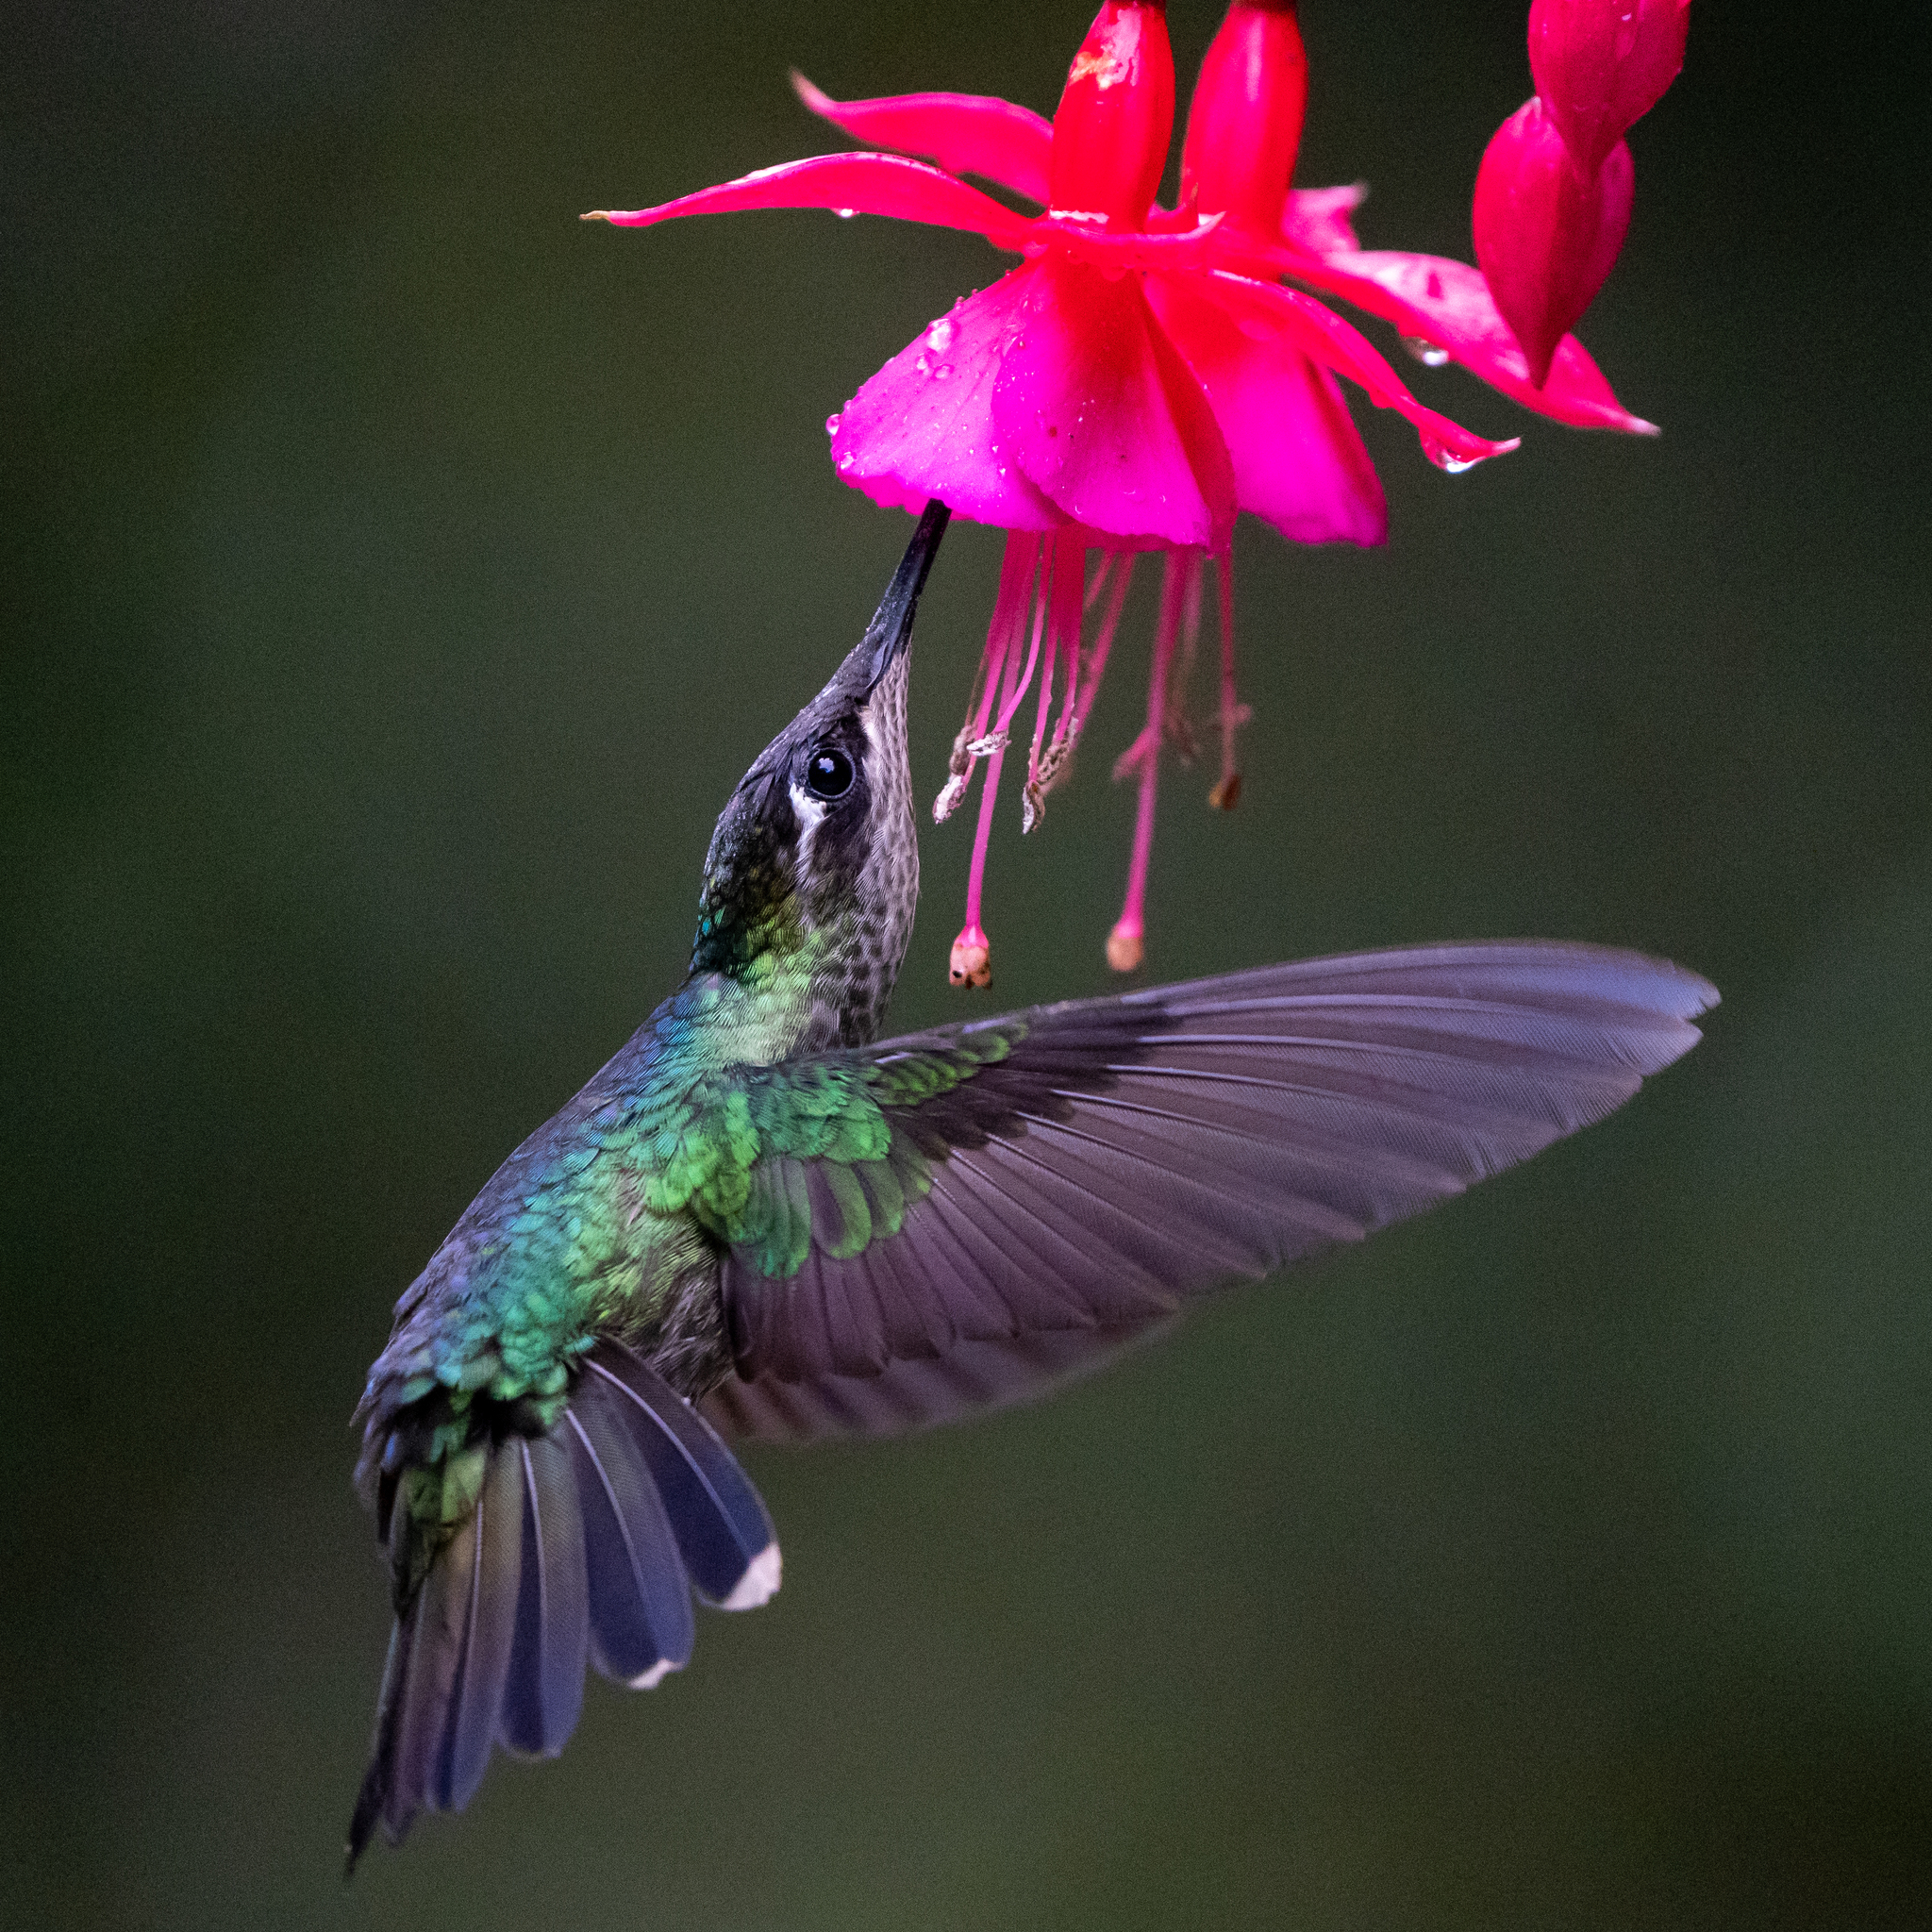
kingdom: Animalia
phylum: Chordata
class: Aves
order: Apodiformes
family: Trochilidae
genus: Eugenes
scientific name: Eugenes spectabilis
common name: Talamanca hummingbird
